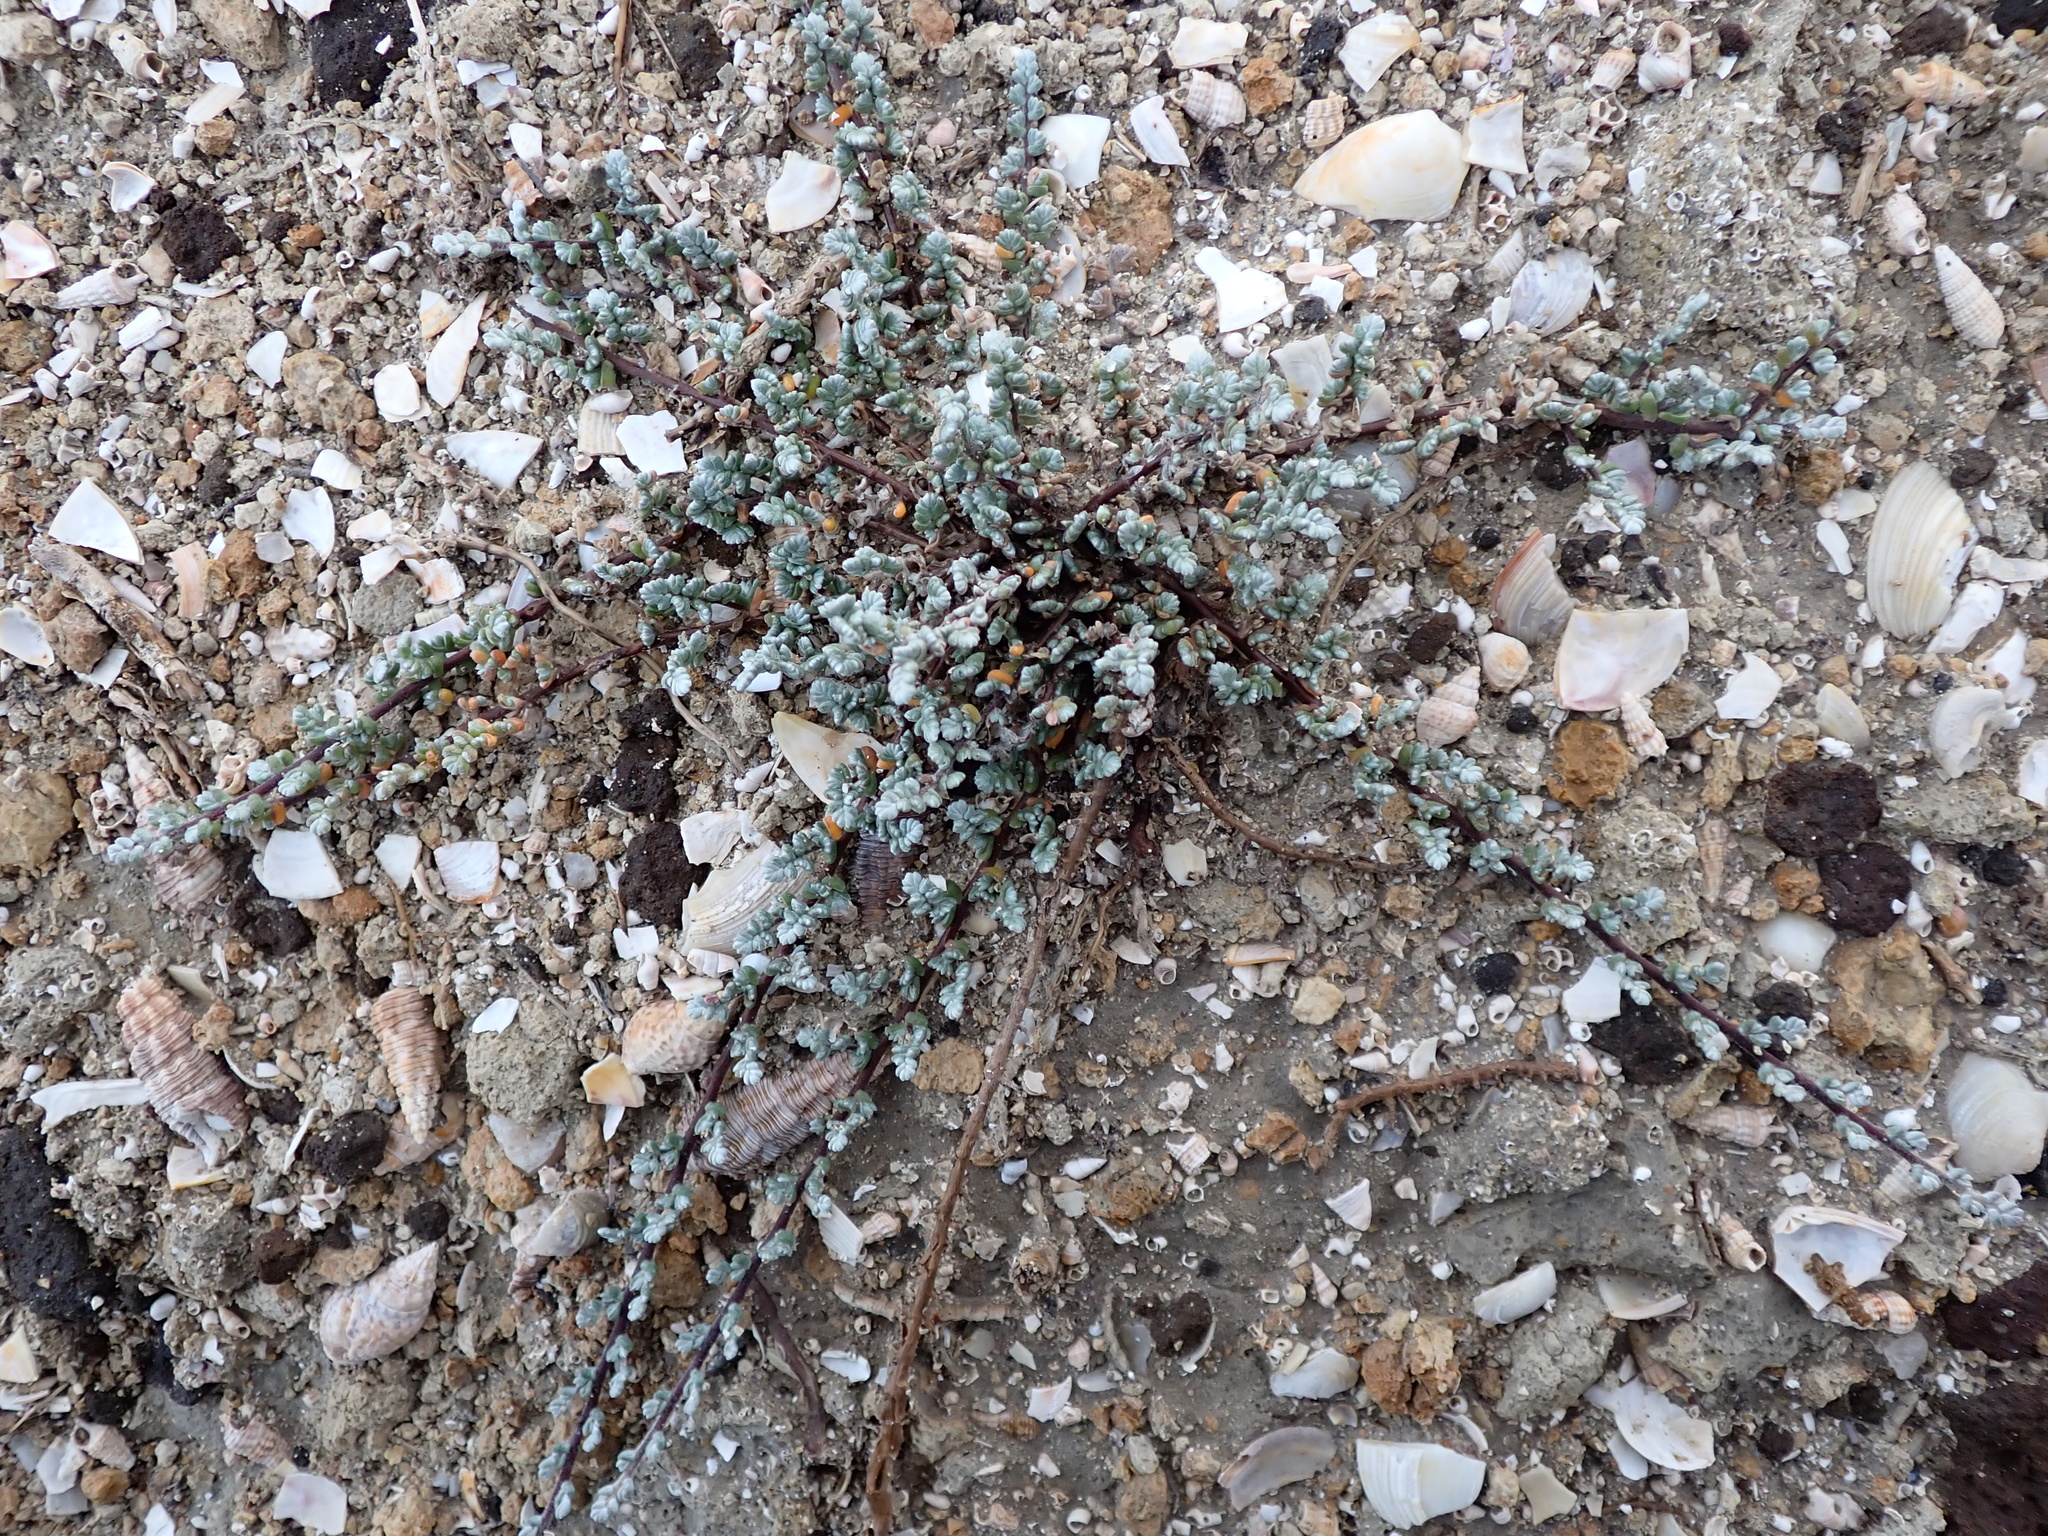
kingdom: Plantae
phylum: Tracheophyta
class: Magnoliopsida
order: Solanales
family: Convolvulaceae
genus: Wilsonia
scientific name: Wilsonia humilis
